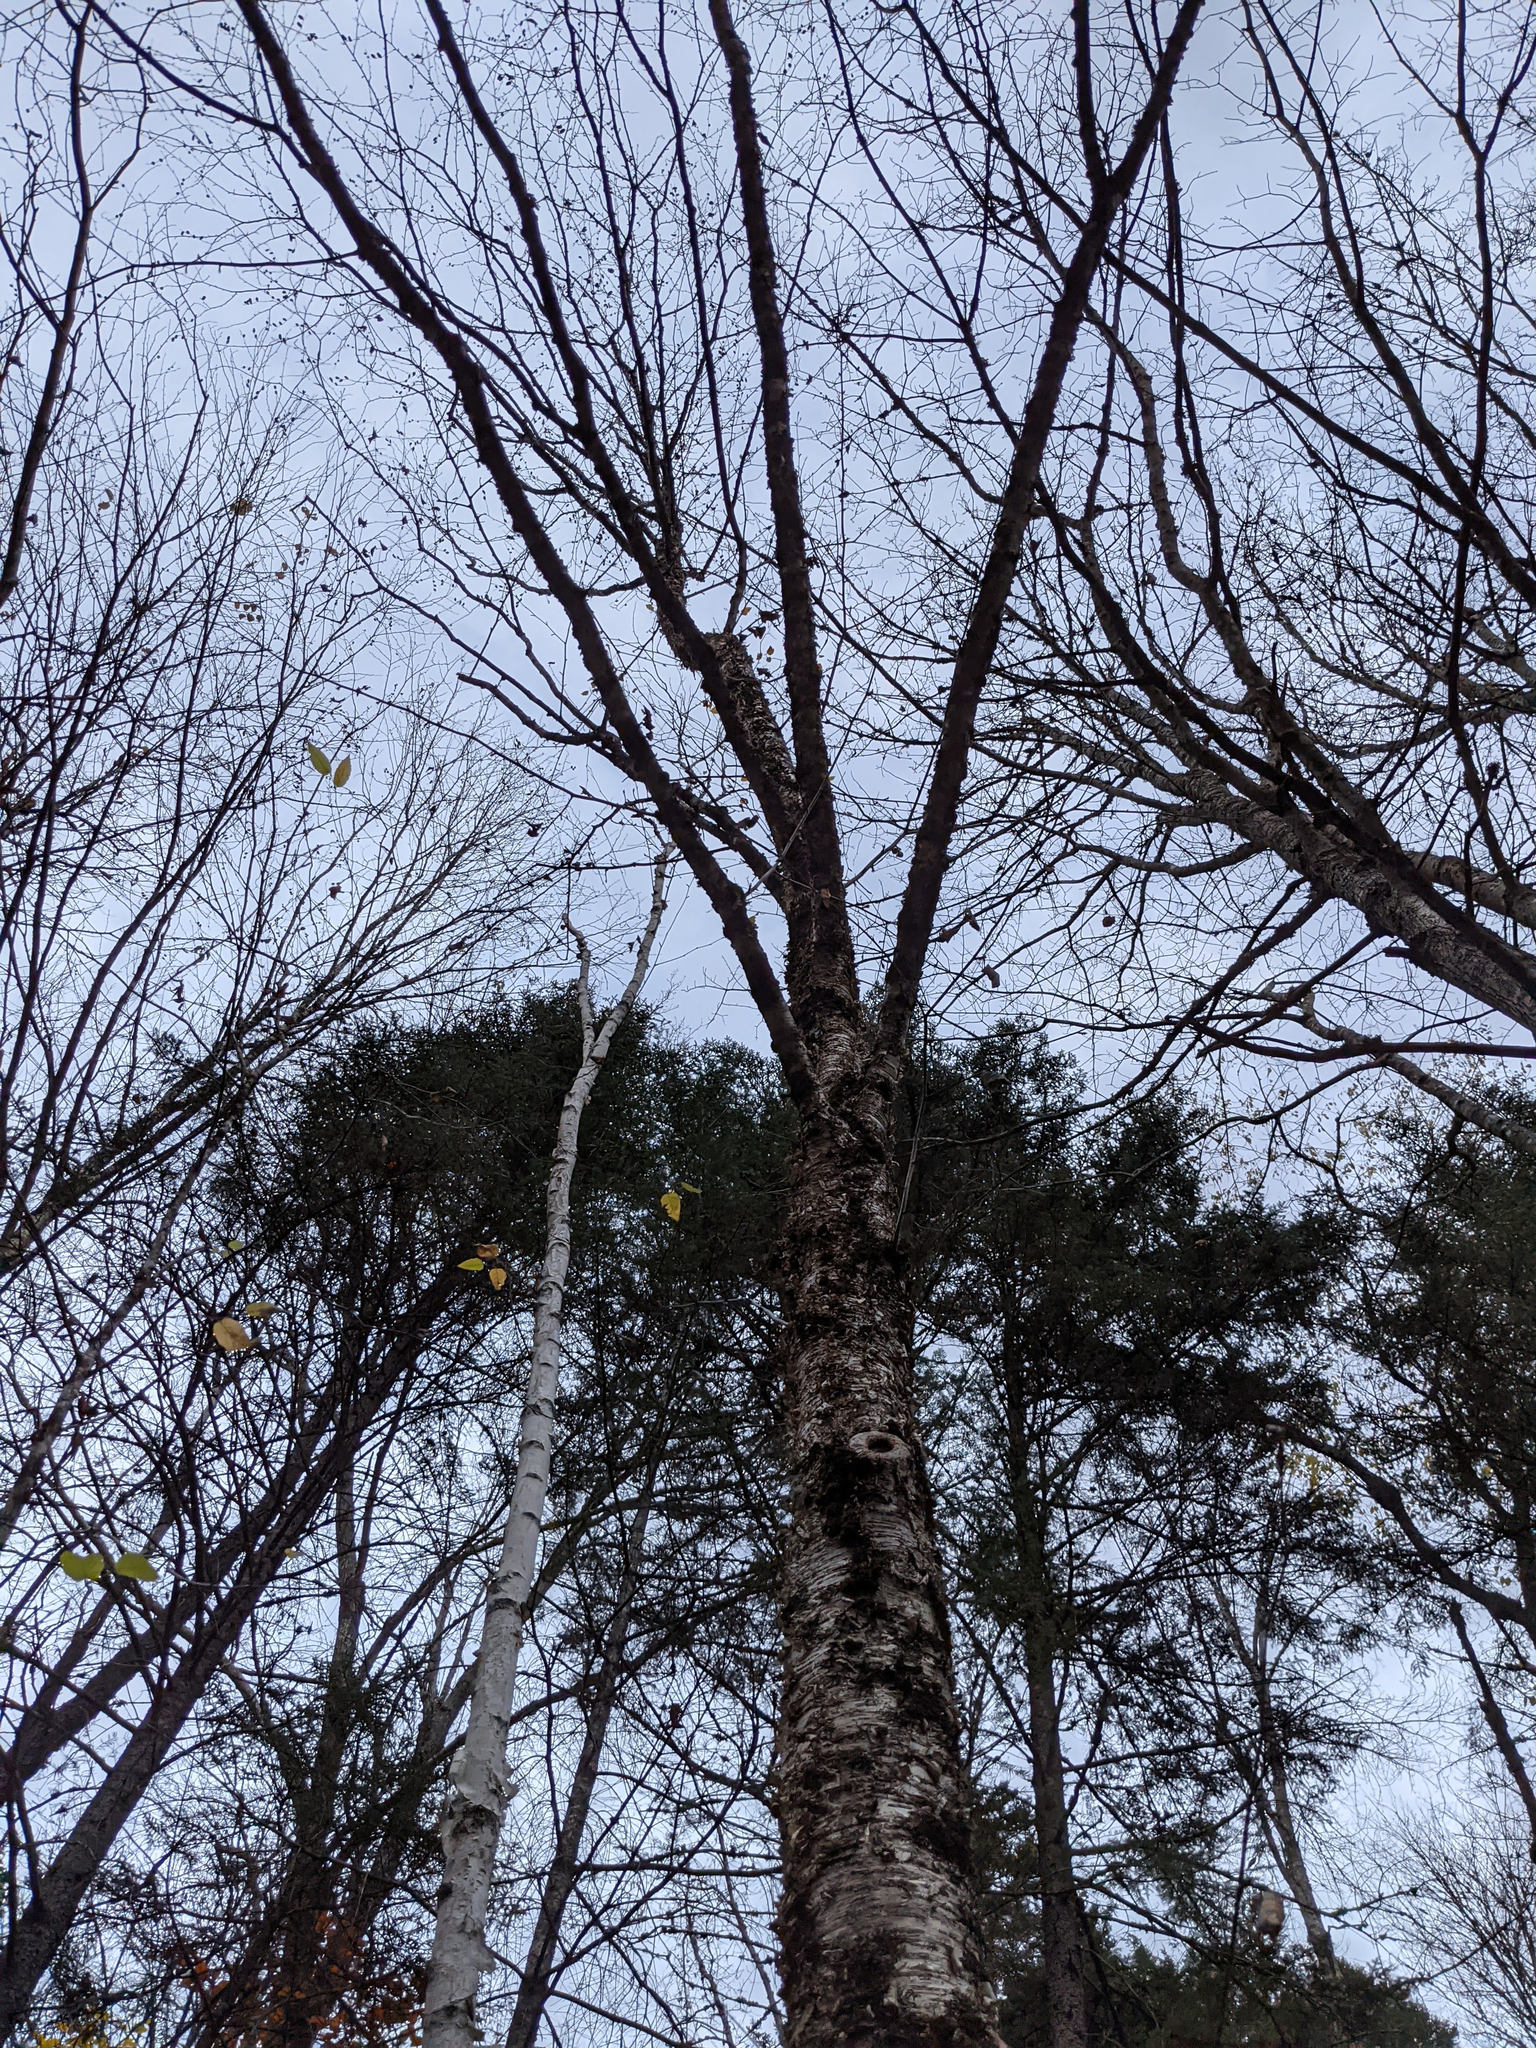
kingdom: Plantae
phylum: Tracheophyta
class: Magnoliopsida
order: Fagales
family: Betulaceae
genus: Betula
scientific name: Betula alleghaniensis
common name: Yellow birch
